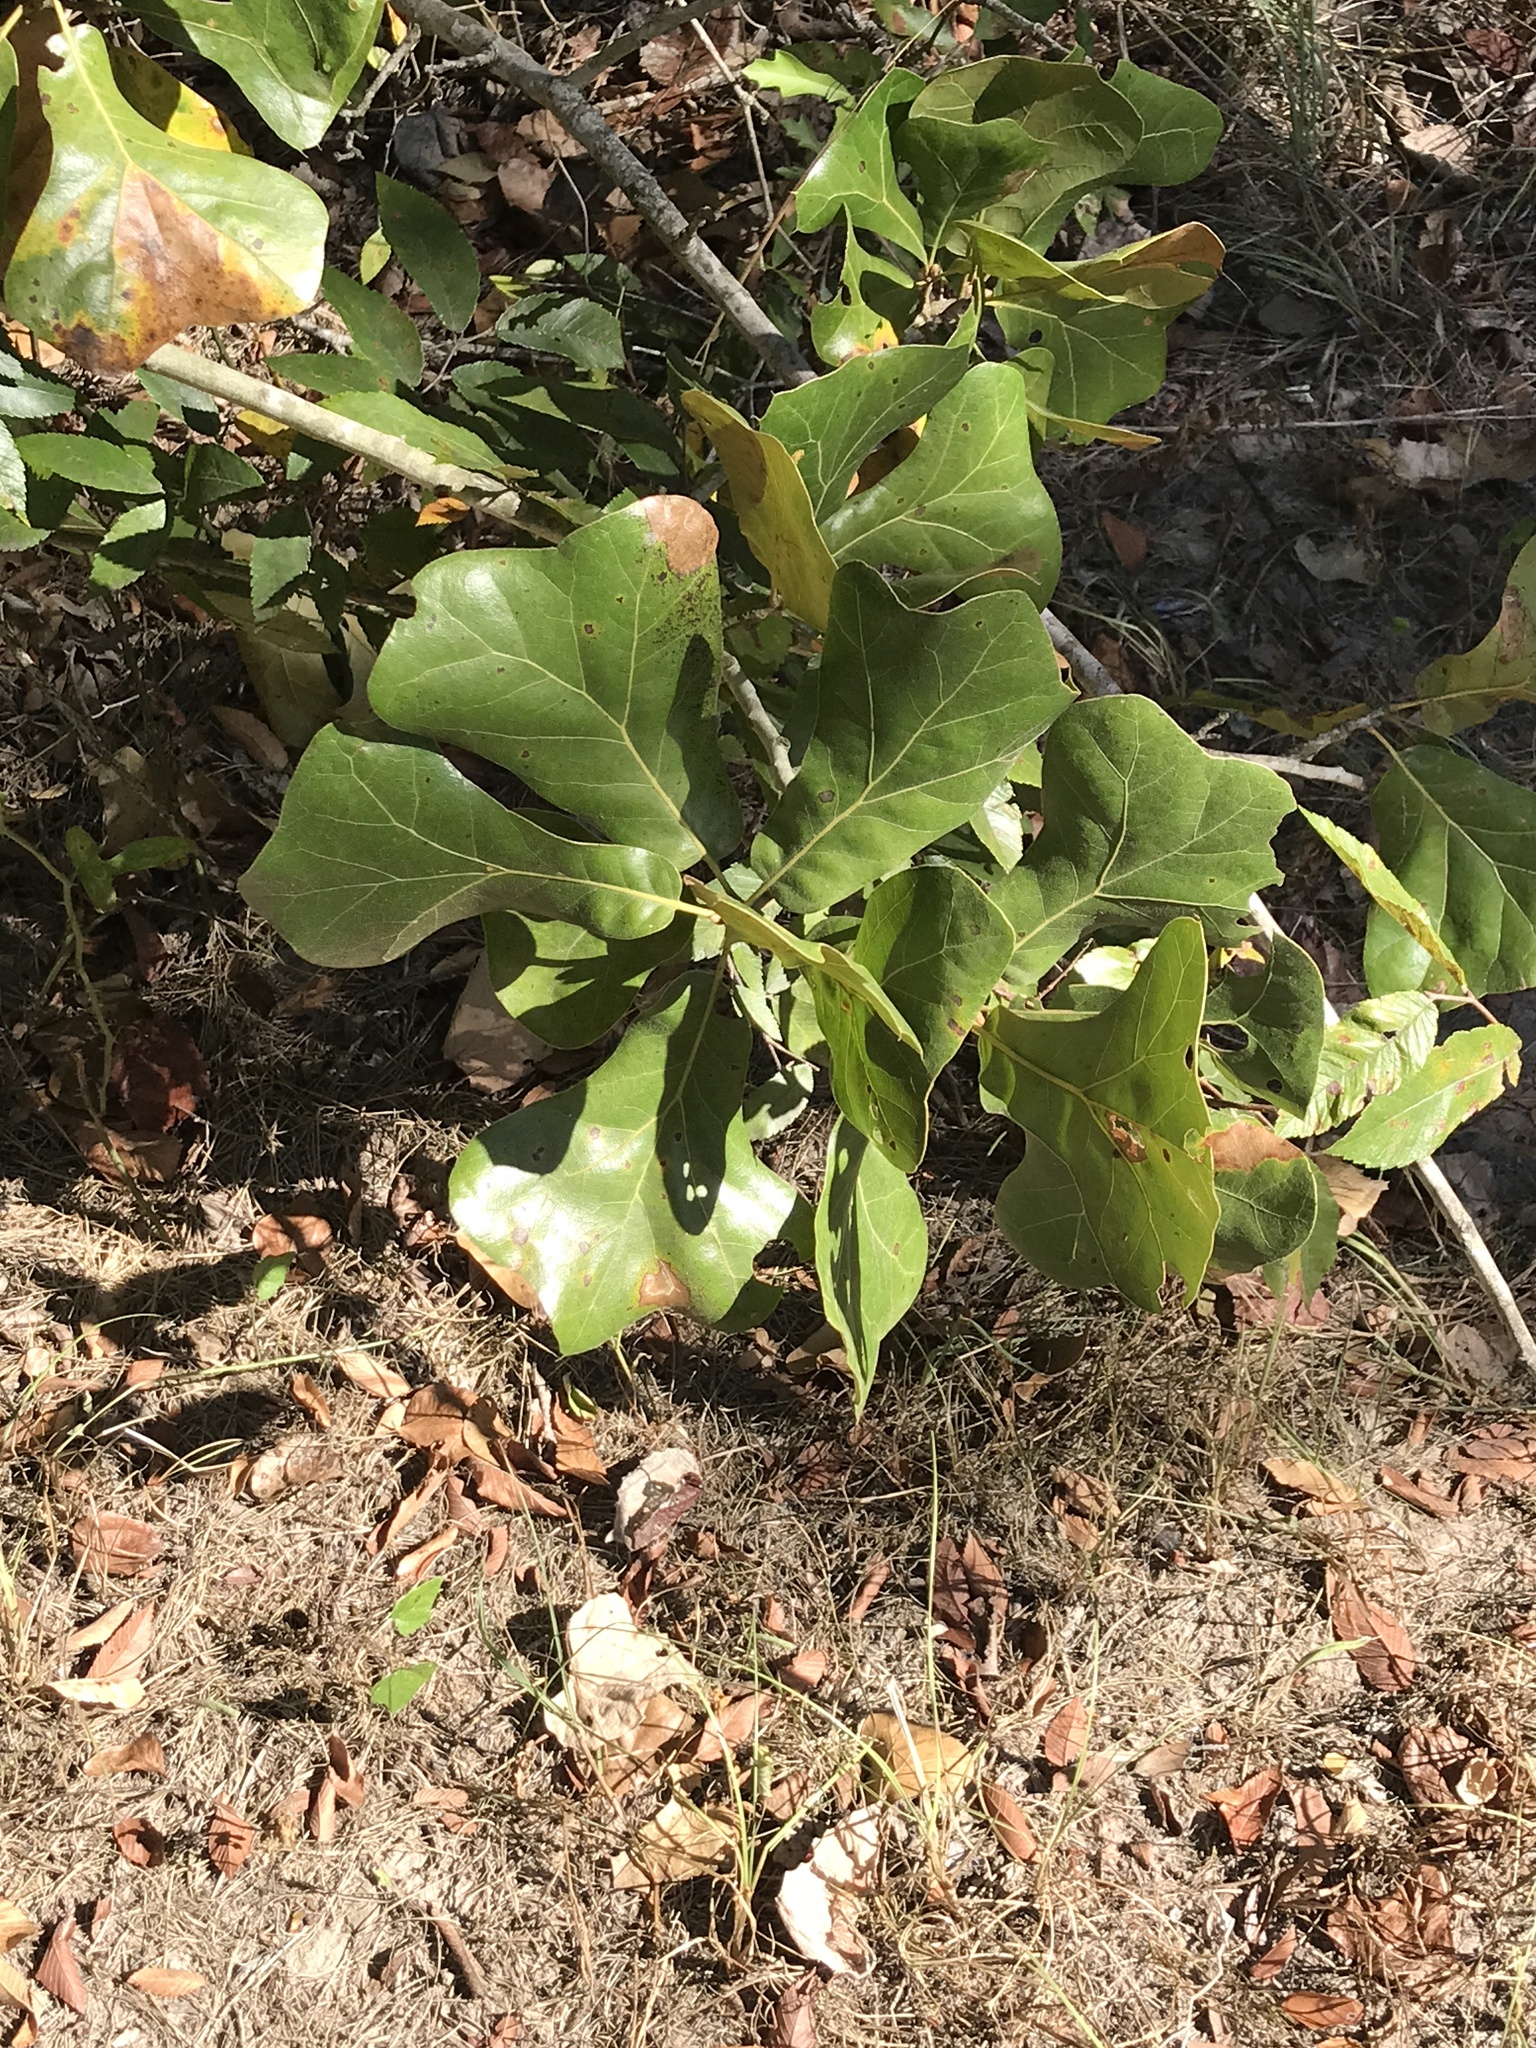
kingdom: Plantae
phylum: Tracheophyta
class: Magnoliopsida
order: Fagales
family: Fagaceae
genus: Quercus
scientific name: Quercus marilandica
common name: Blackjack oak
